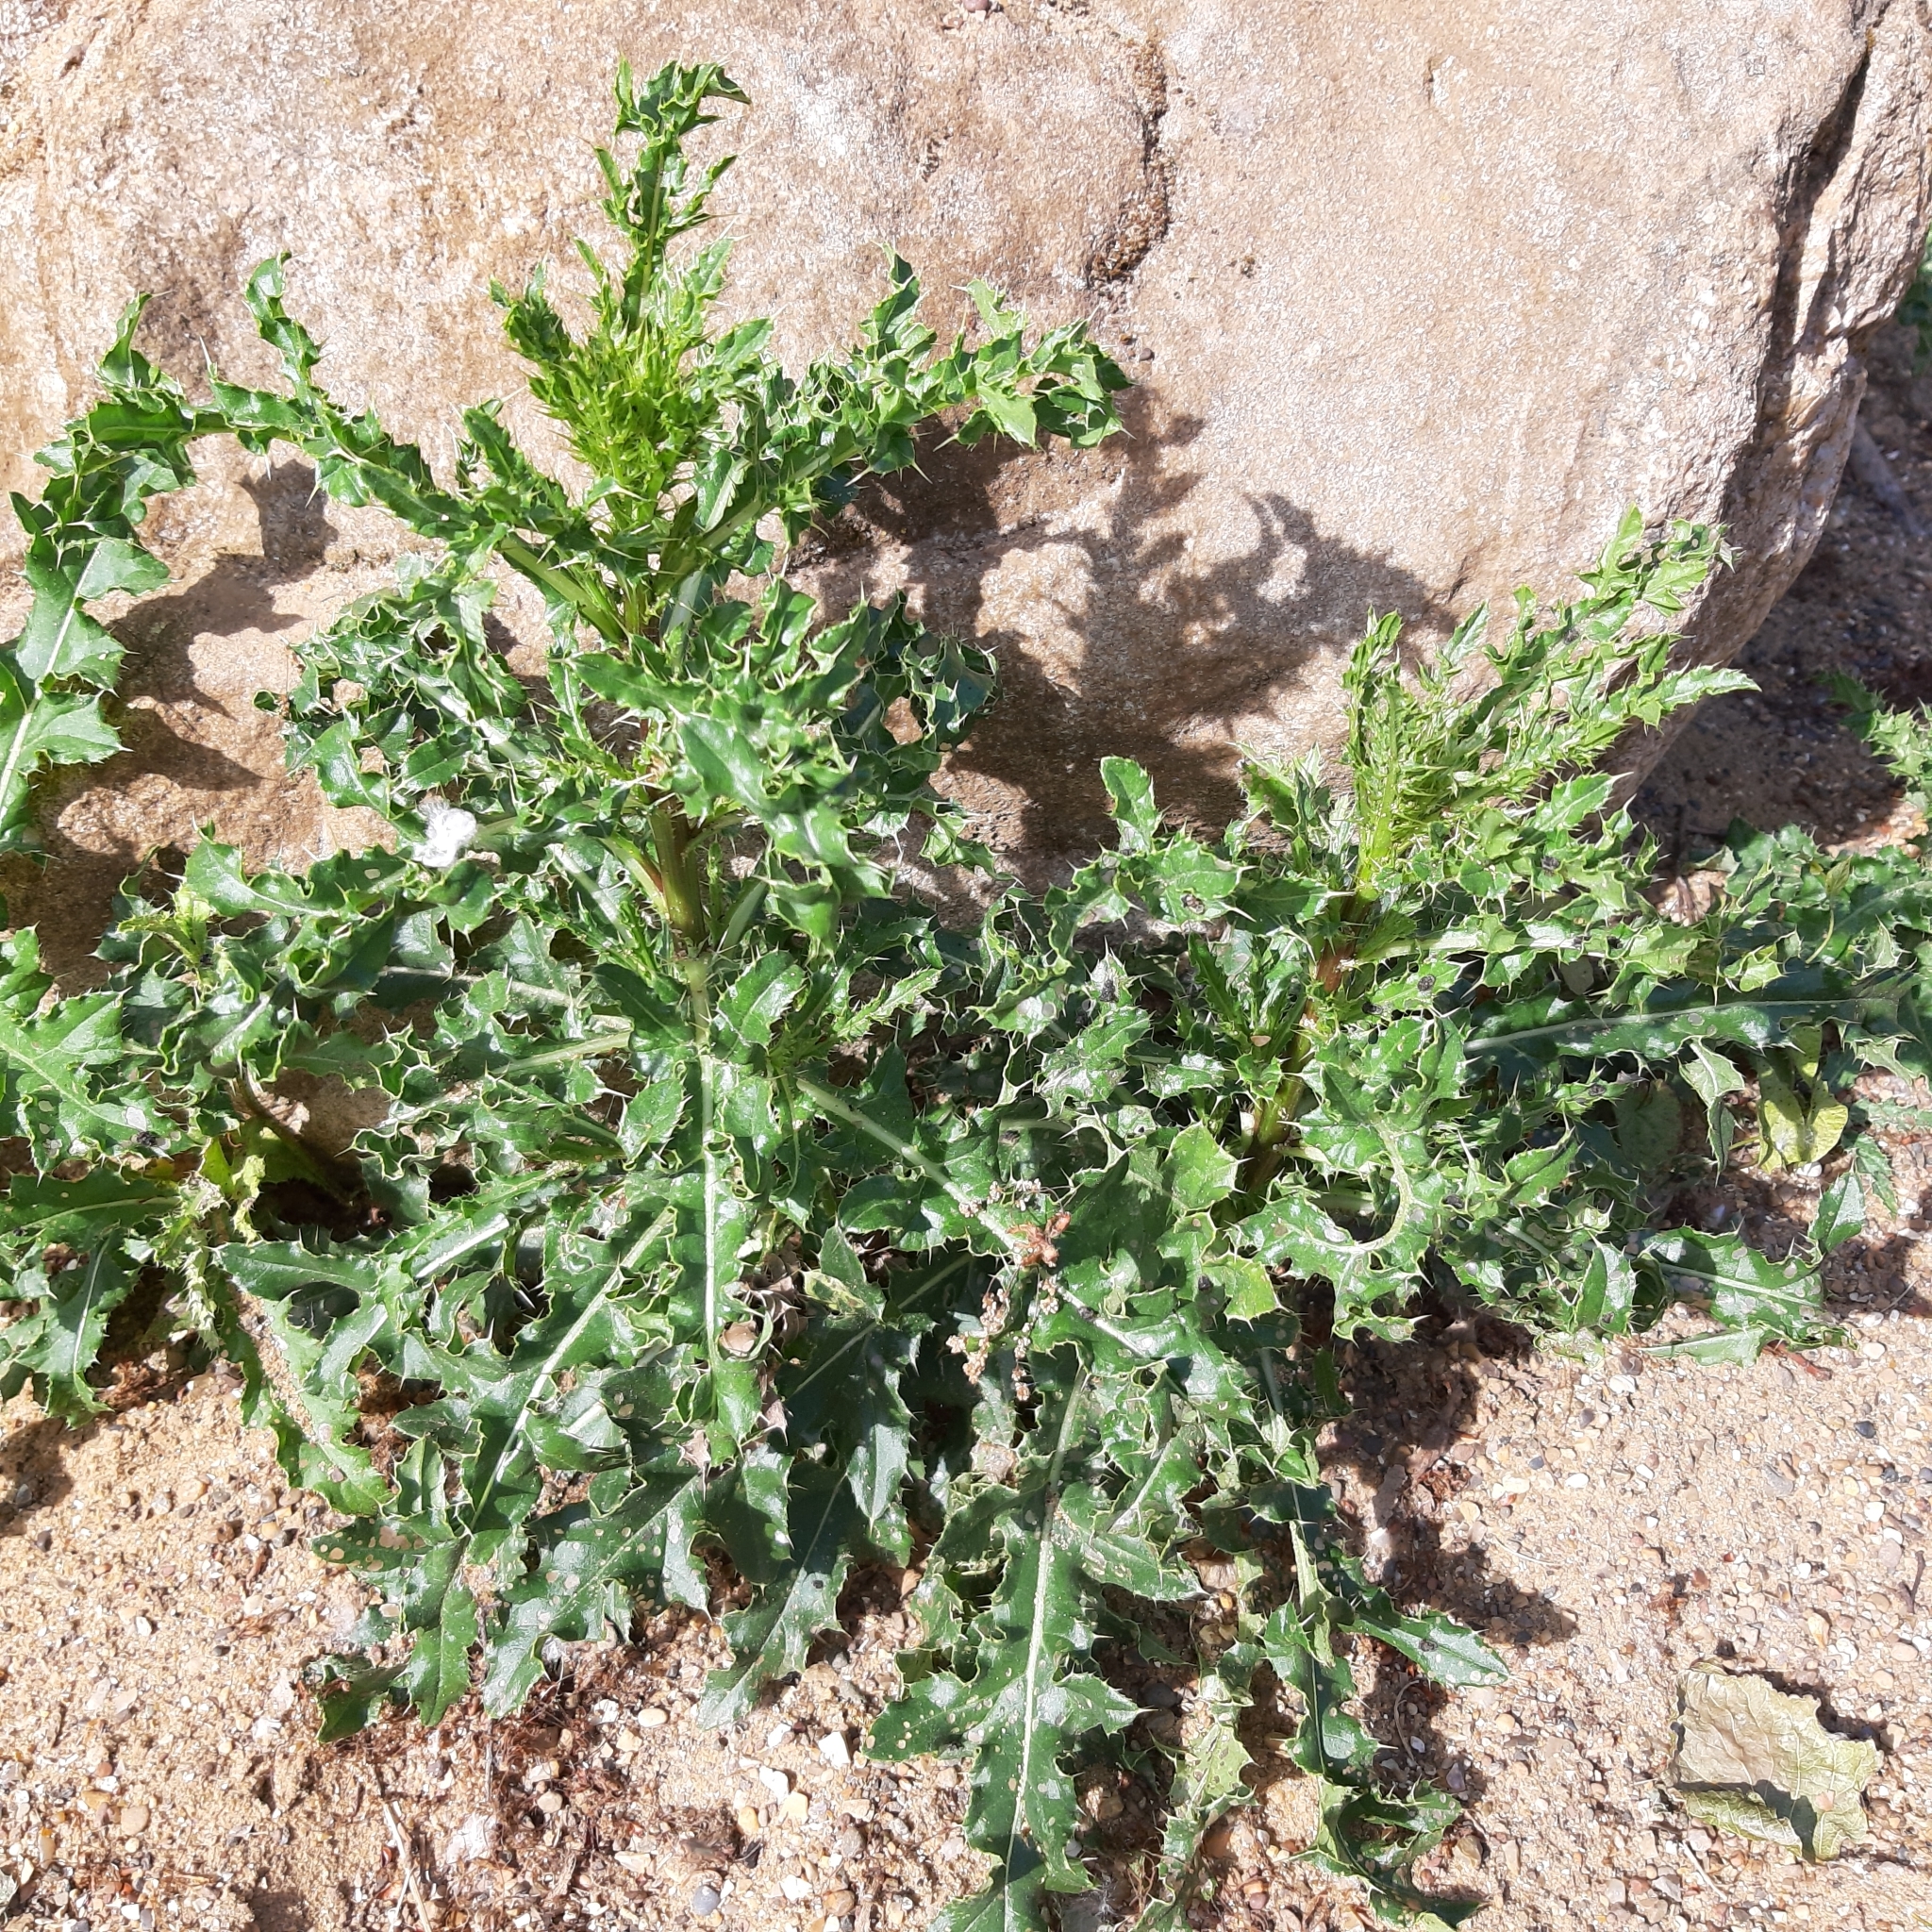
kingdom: Plantae
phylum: Tracheophyta
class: Magnoliopsida
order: Asterales
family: Asteraceae
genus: Cirsium
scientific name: Cirsium arvense
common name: Creeping thistle
